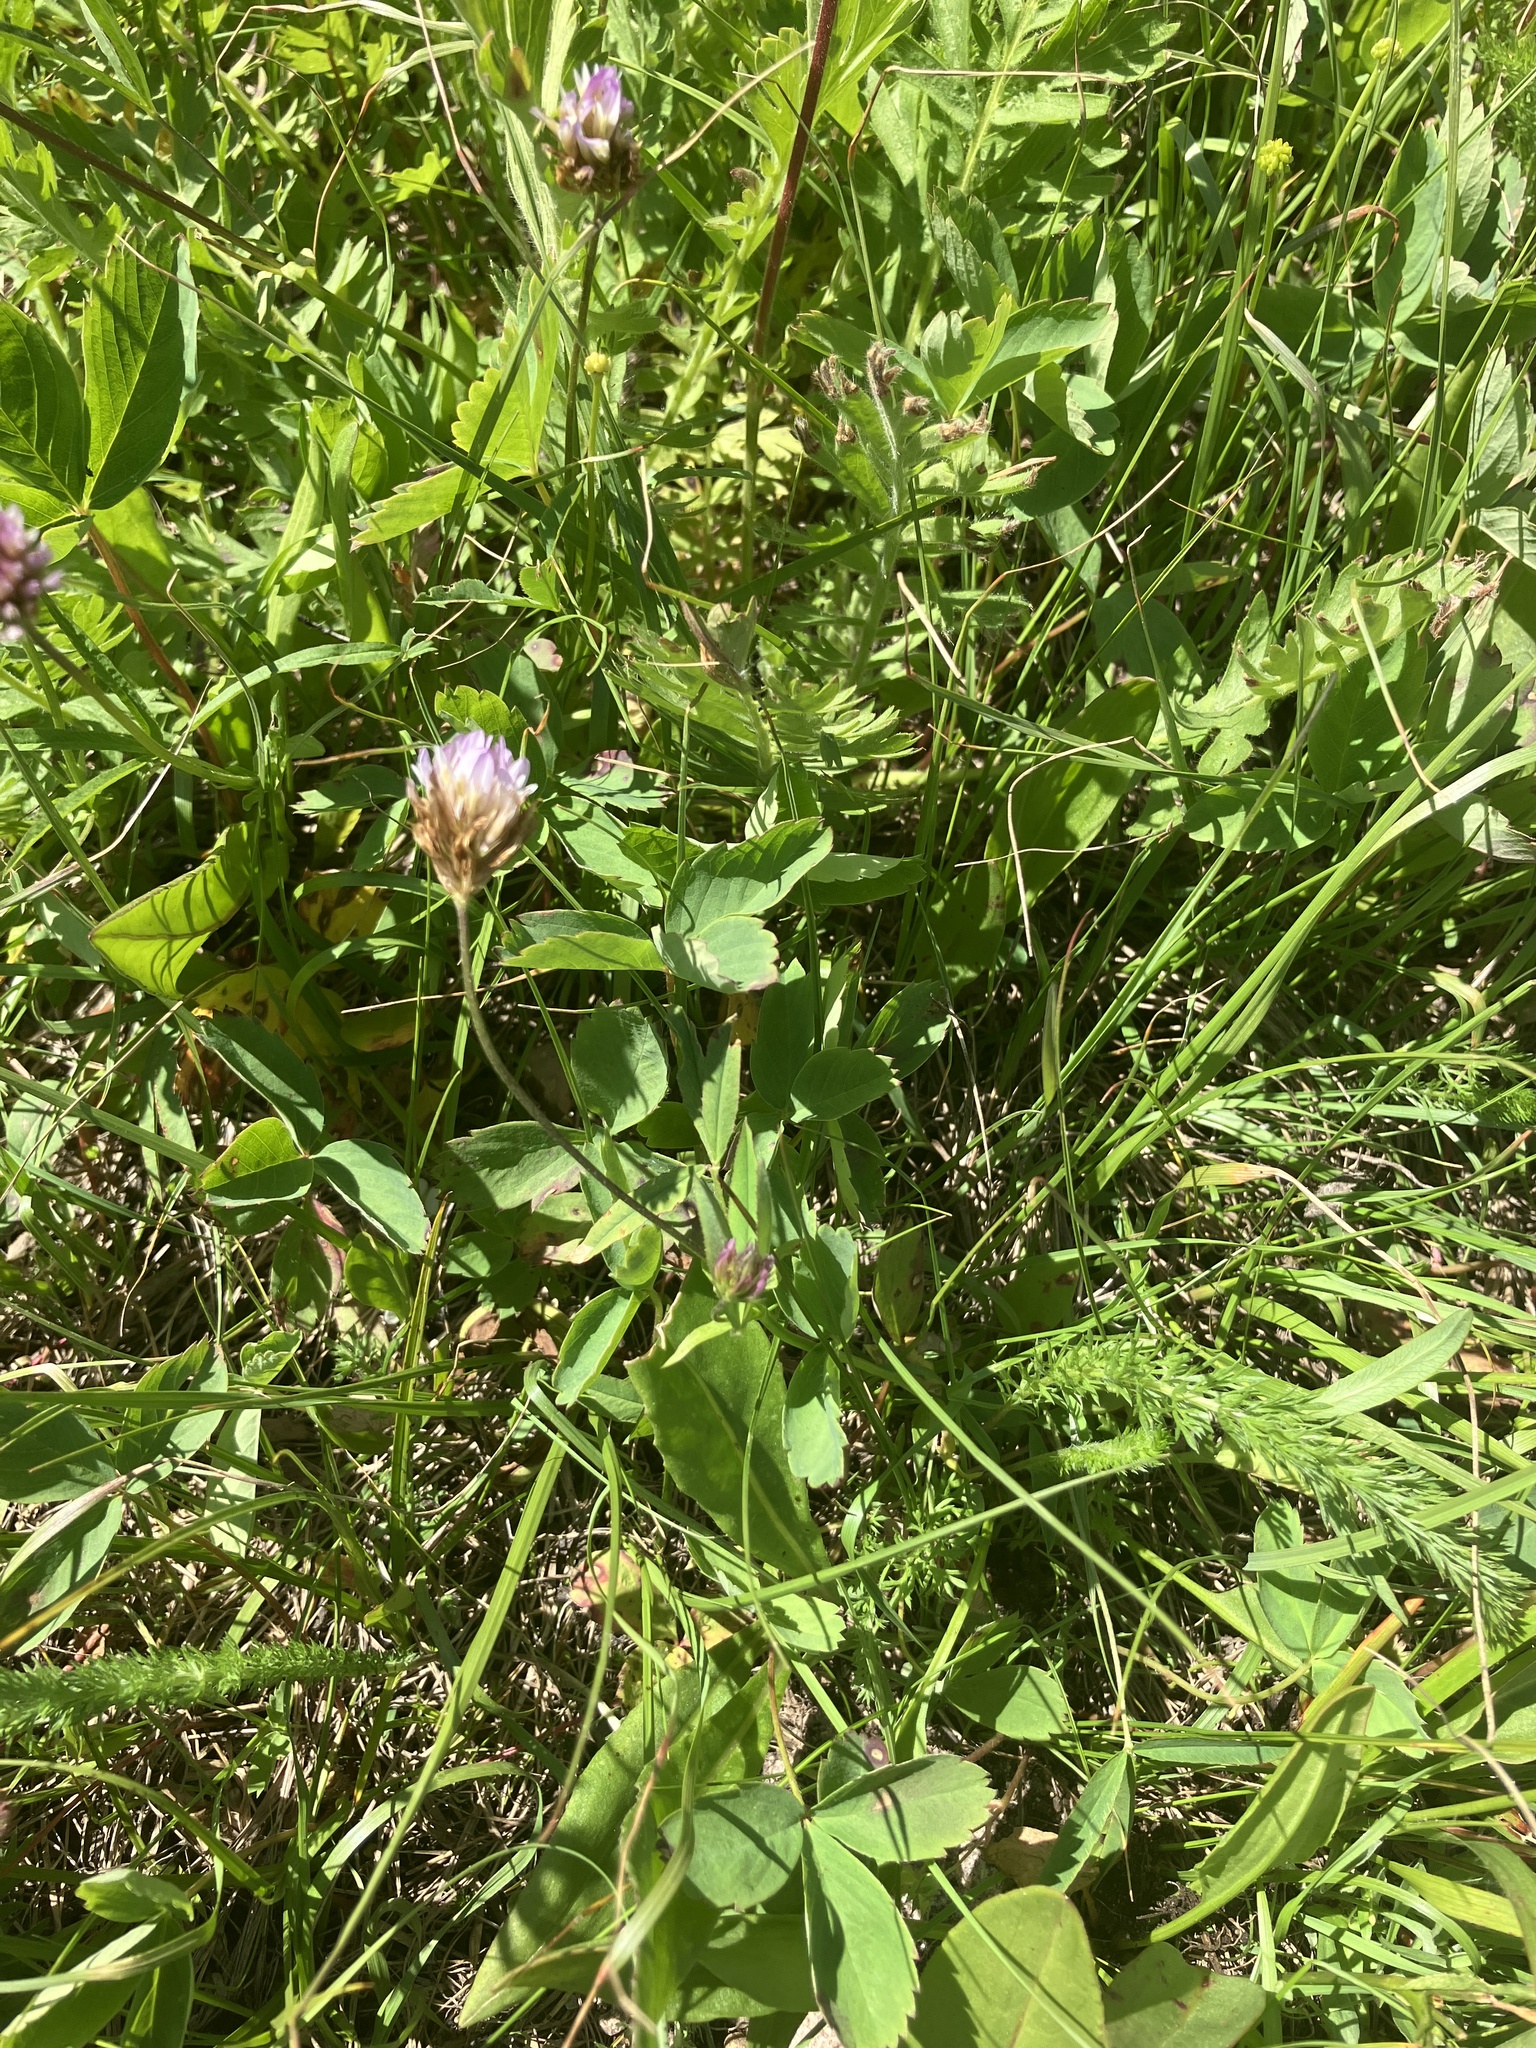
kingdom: Plantae
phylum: Tracheophyta
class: Magnoliopsida
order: Fabales
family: Fabaceae
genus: Trifolium
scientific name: Trifolium longipes
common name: Long-stalk clover
